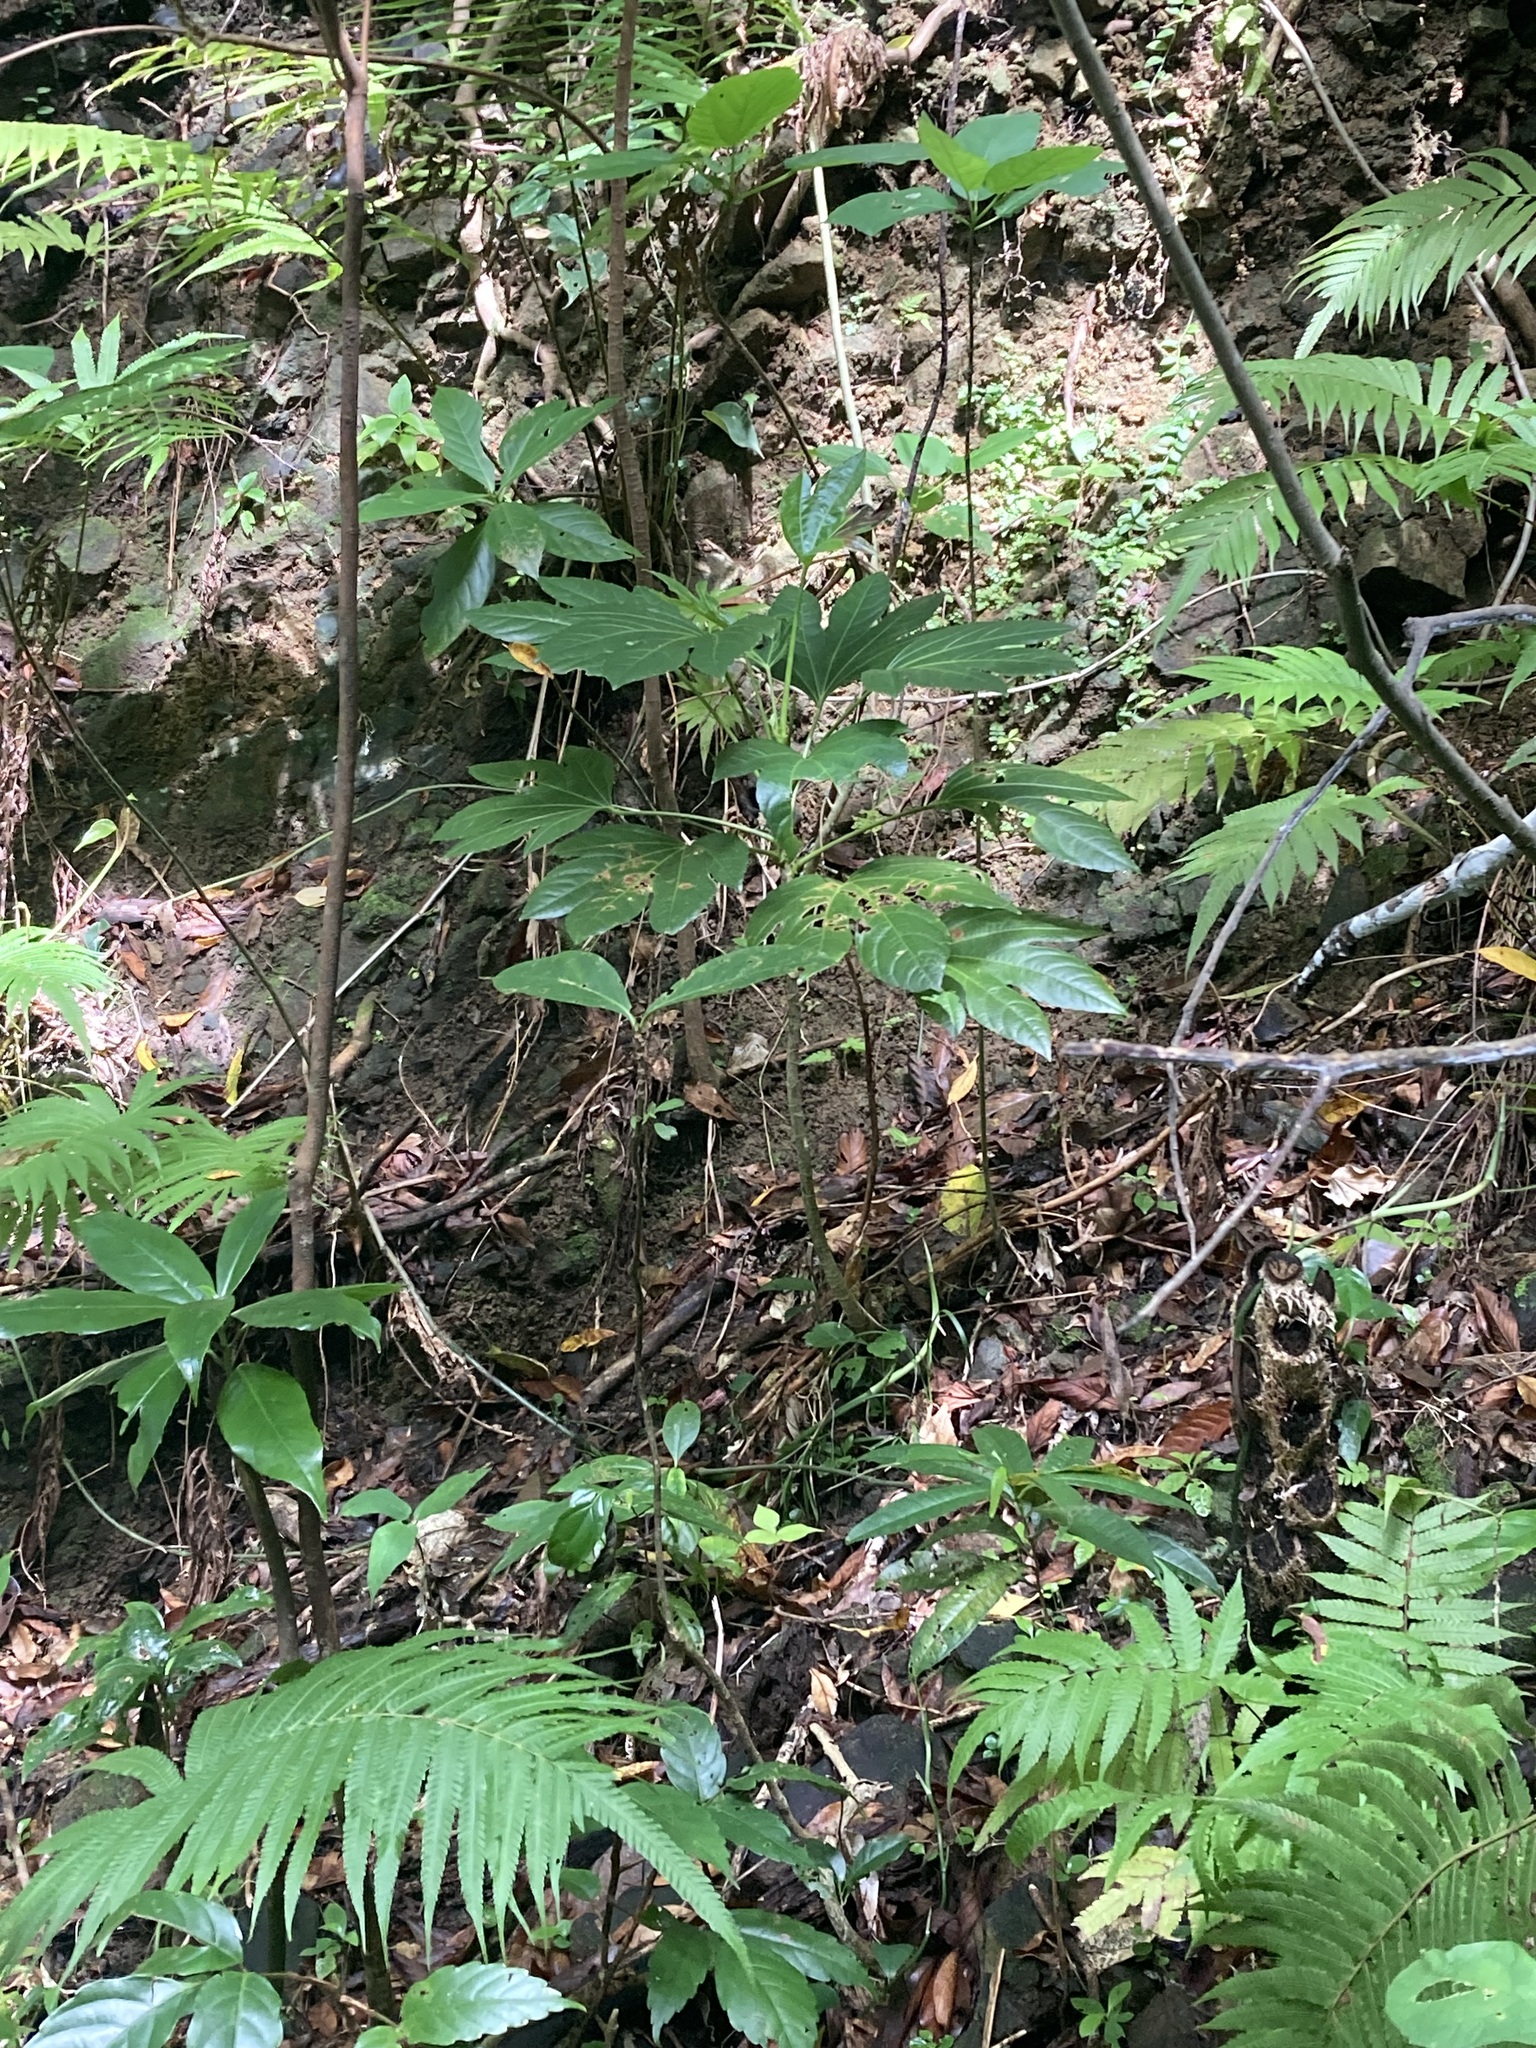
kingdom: Plantae
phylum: Tracheophyta
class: Magnoliopsida
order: Apiales
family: Araliaceae
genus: Osmoxylon
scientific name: Osmoxylon pectinatum
